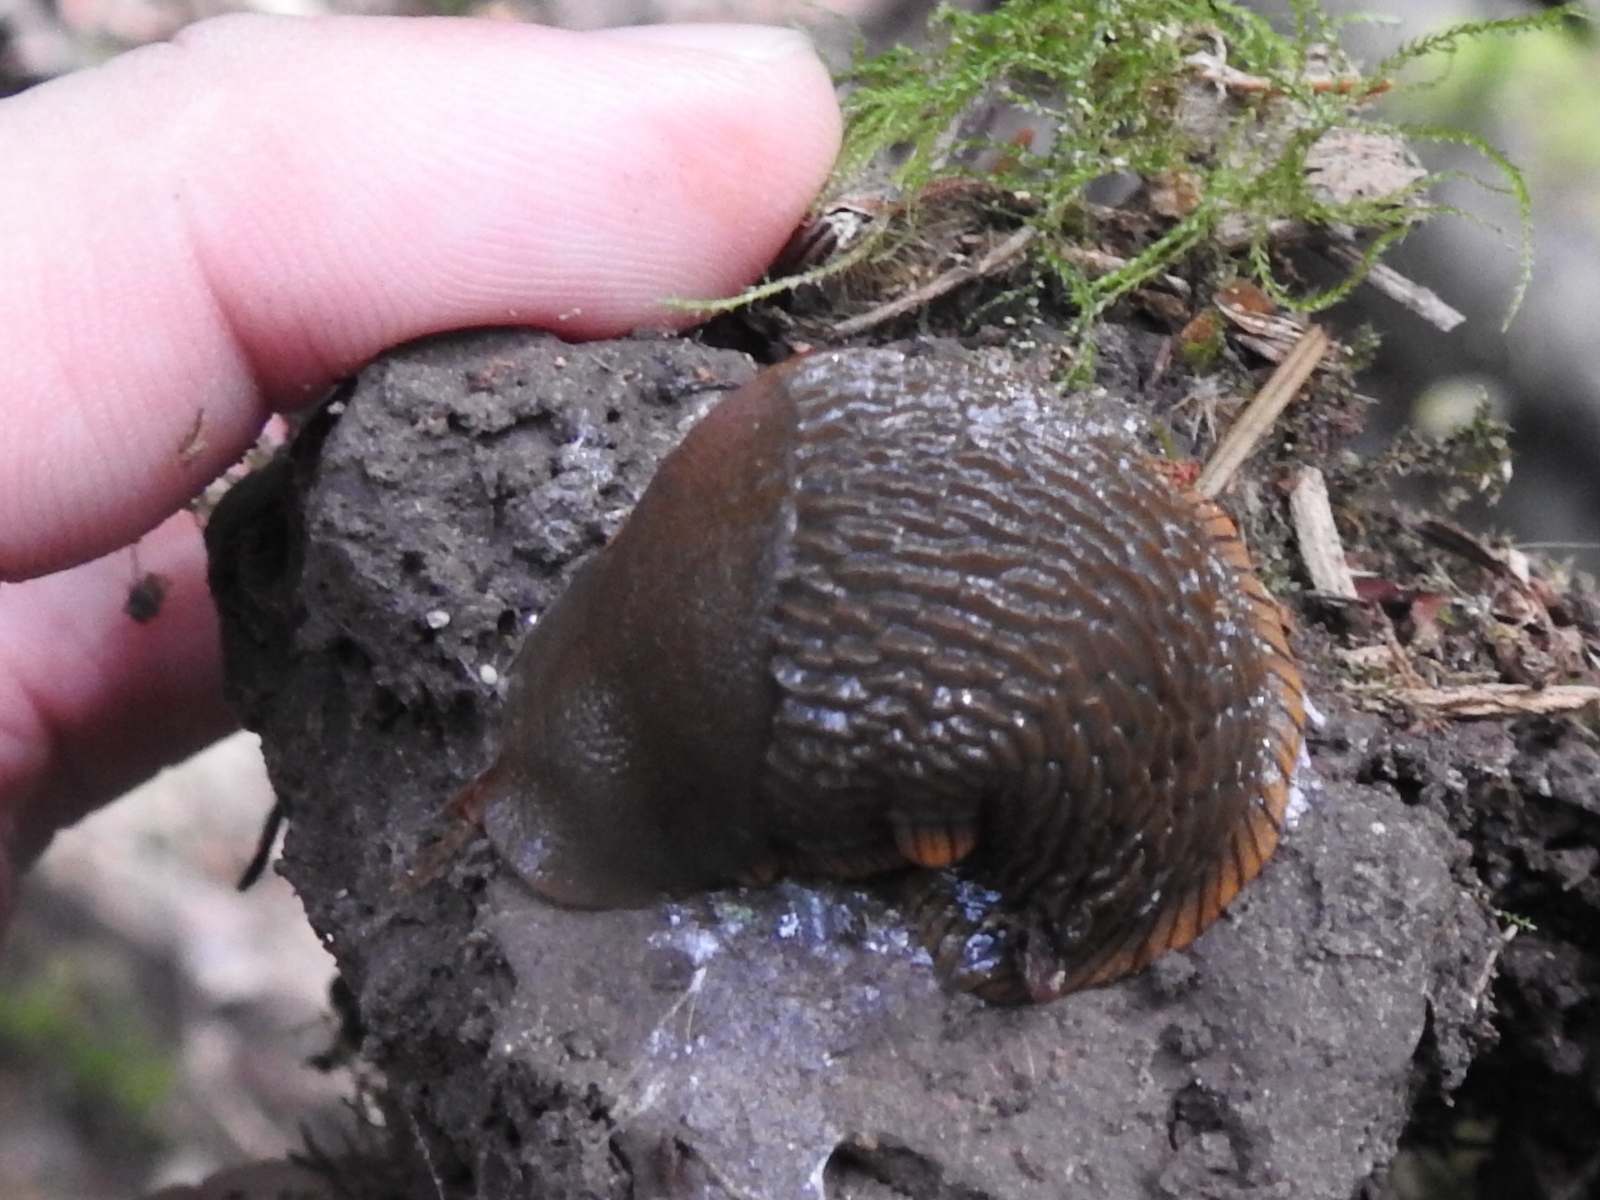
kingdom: Animalia
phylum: Mollusca
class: Gastropoda
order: Stylommatophora
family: Arionidae
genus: Arion
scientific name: Arion rufus
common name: Chocolate arion
